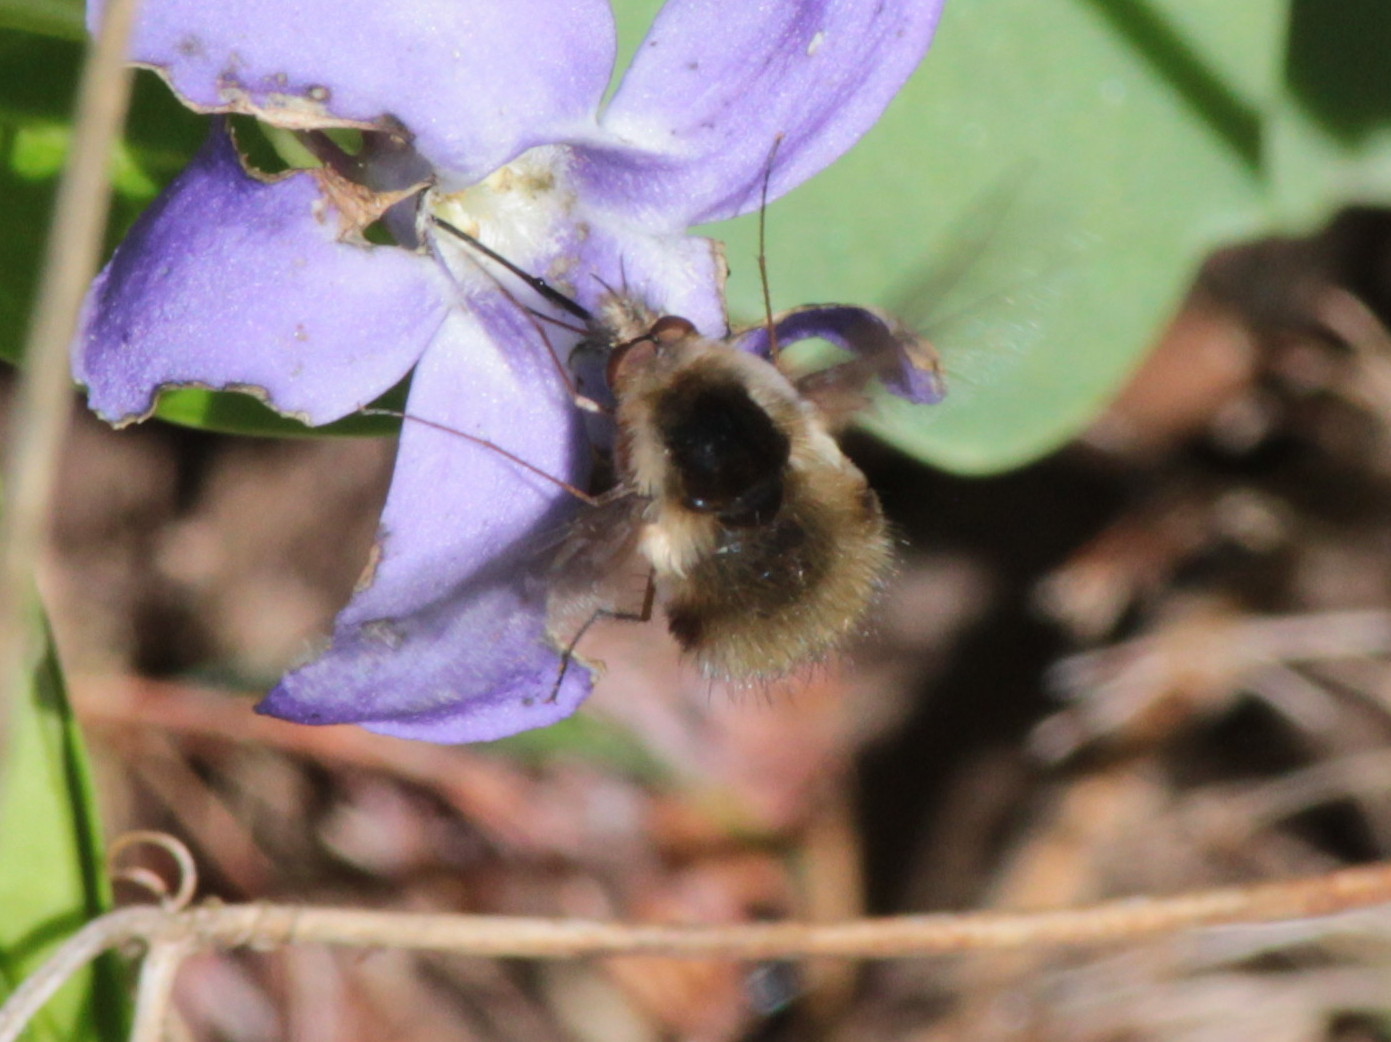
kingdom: Animalia
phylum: Arthropoda
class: Insecta
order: Diptera
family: Bombyliidae
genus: Bombylius
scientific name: Bombylius major
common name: Bee fly
